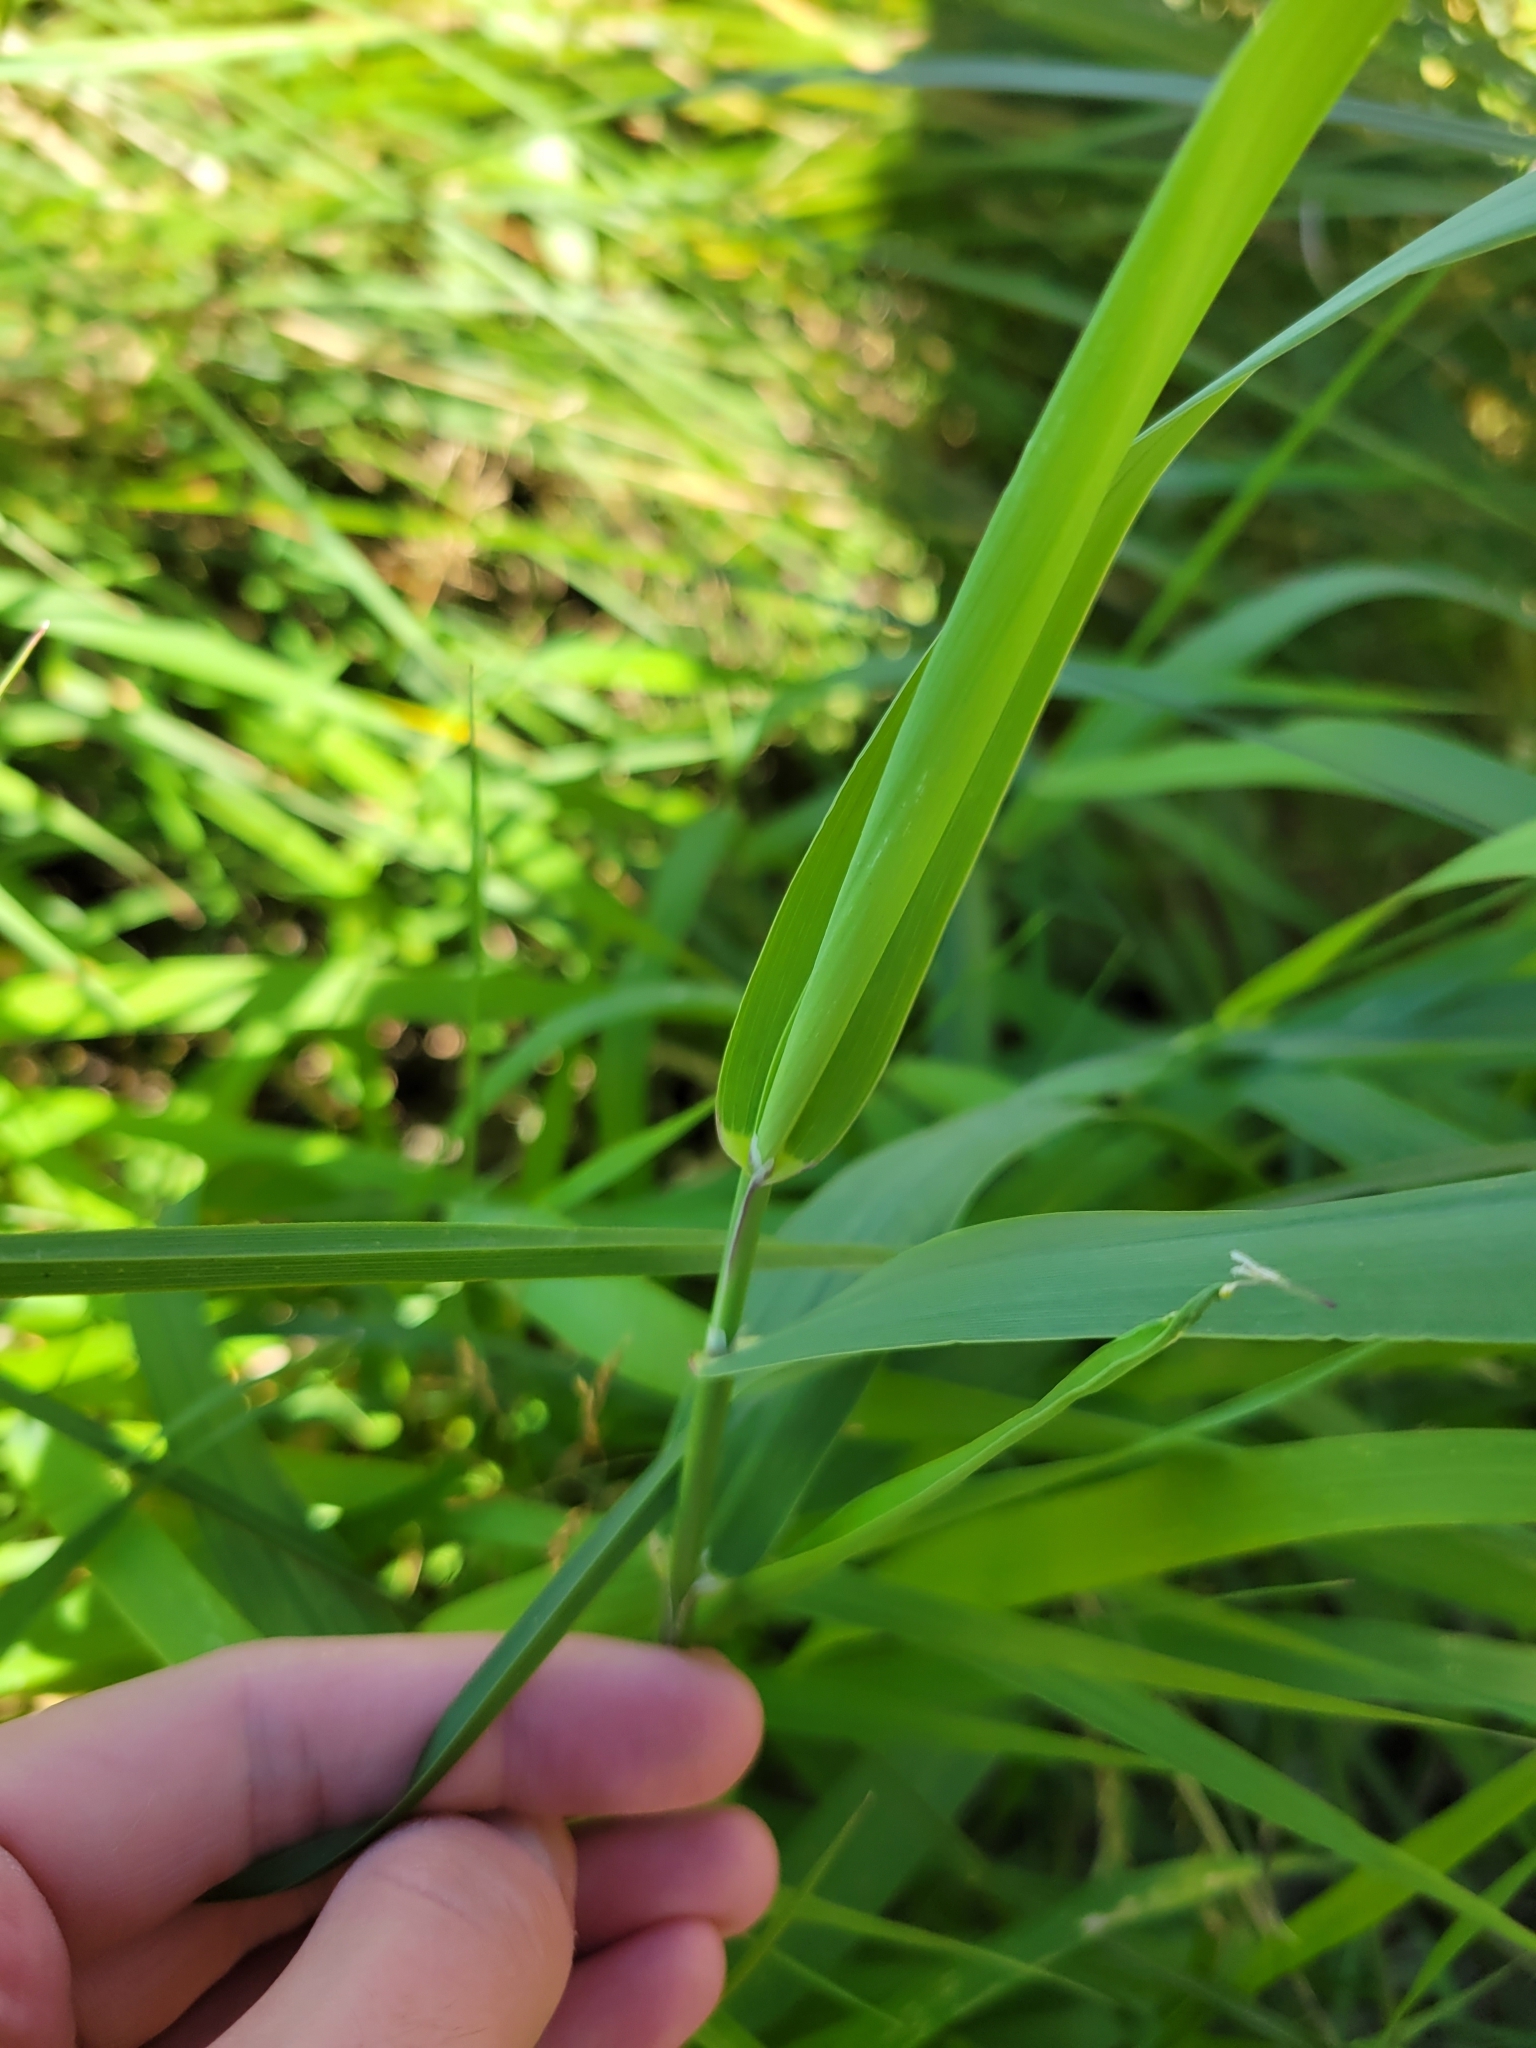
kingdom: Plantae
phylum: Tracheophyta
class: Liliopsida
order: Poales
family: Poaceae
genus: Phalaris
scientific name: Phalaris arundinacea
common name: Reed canary-grass
